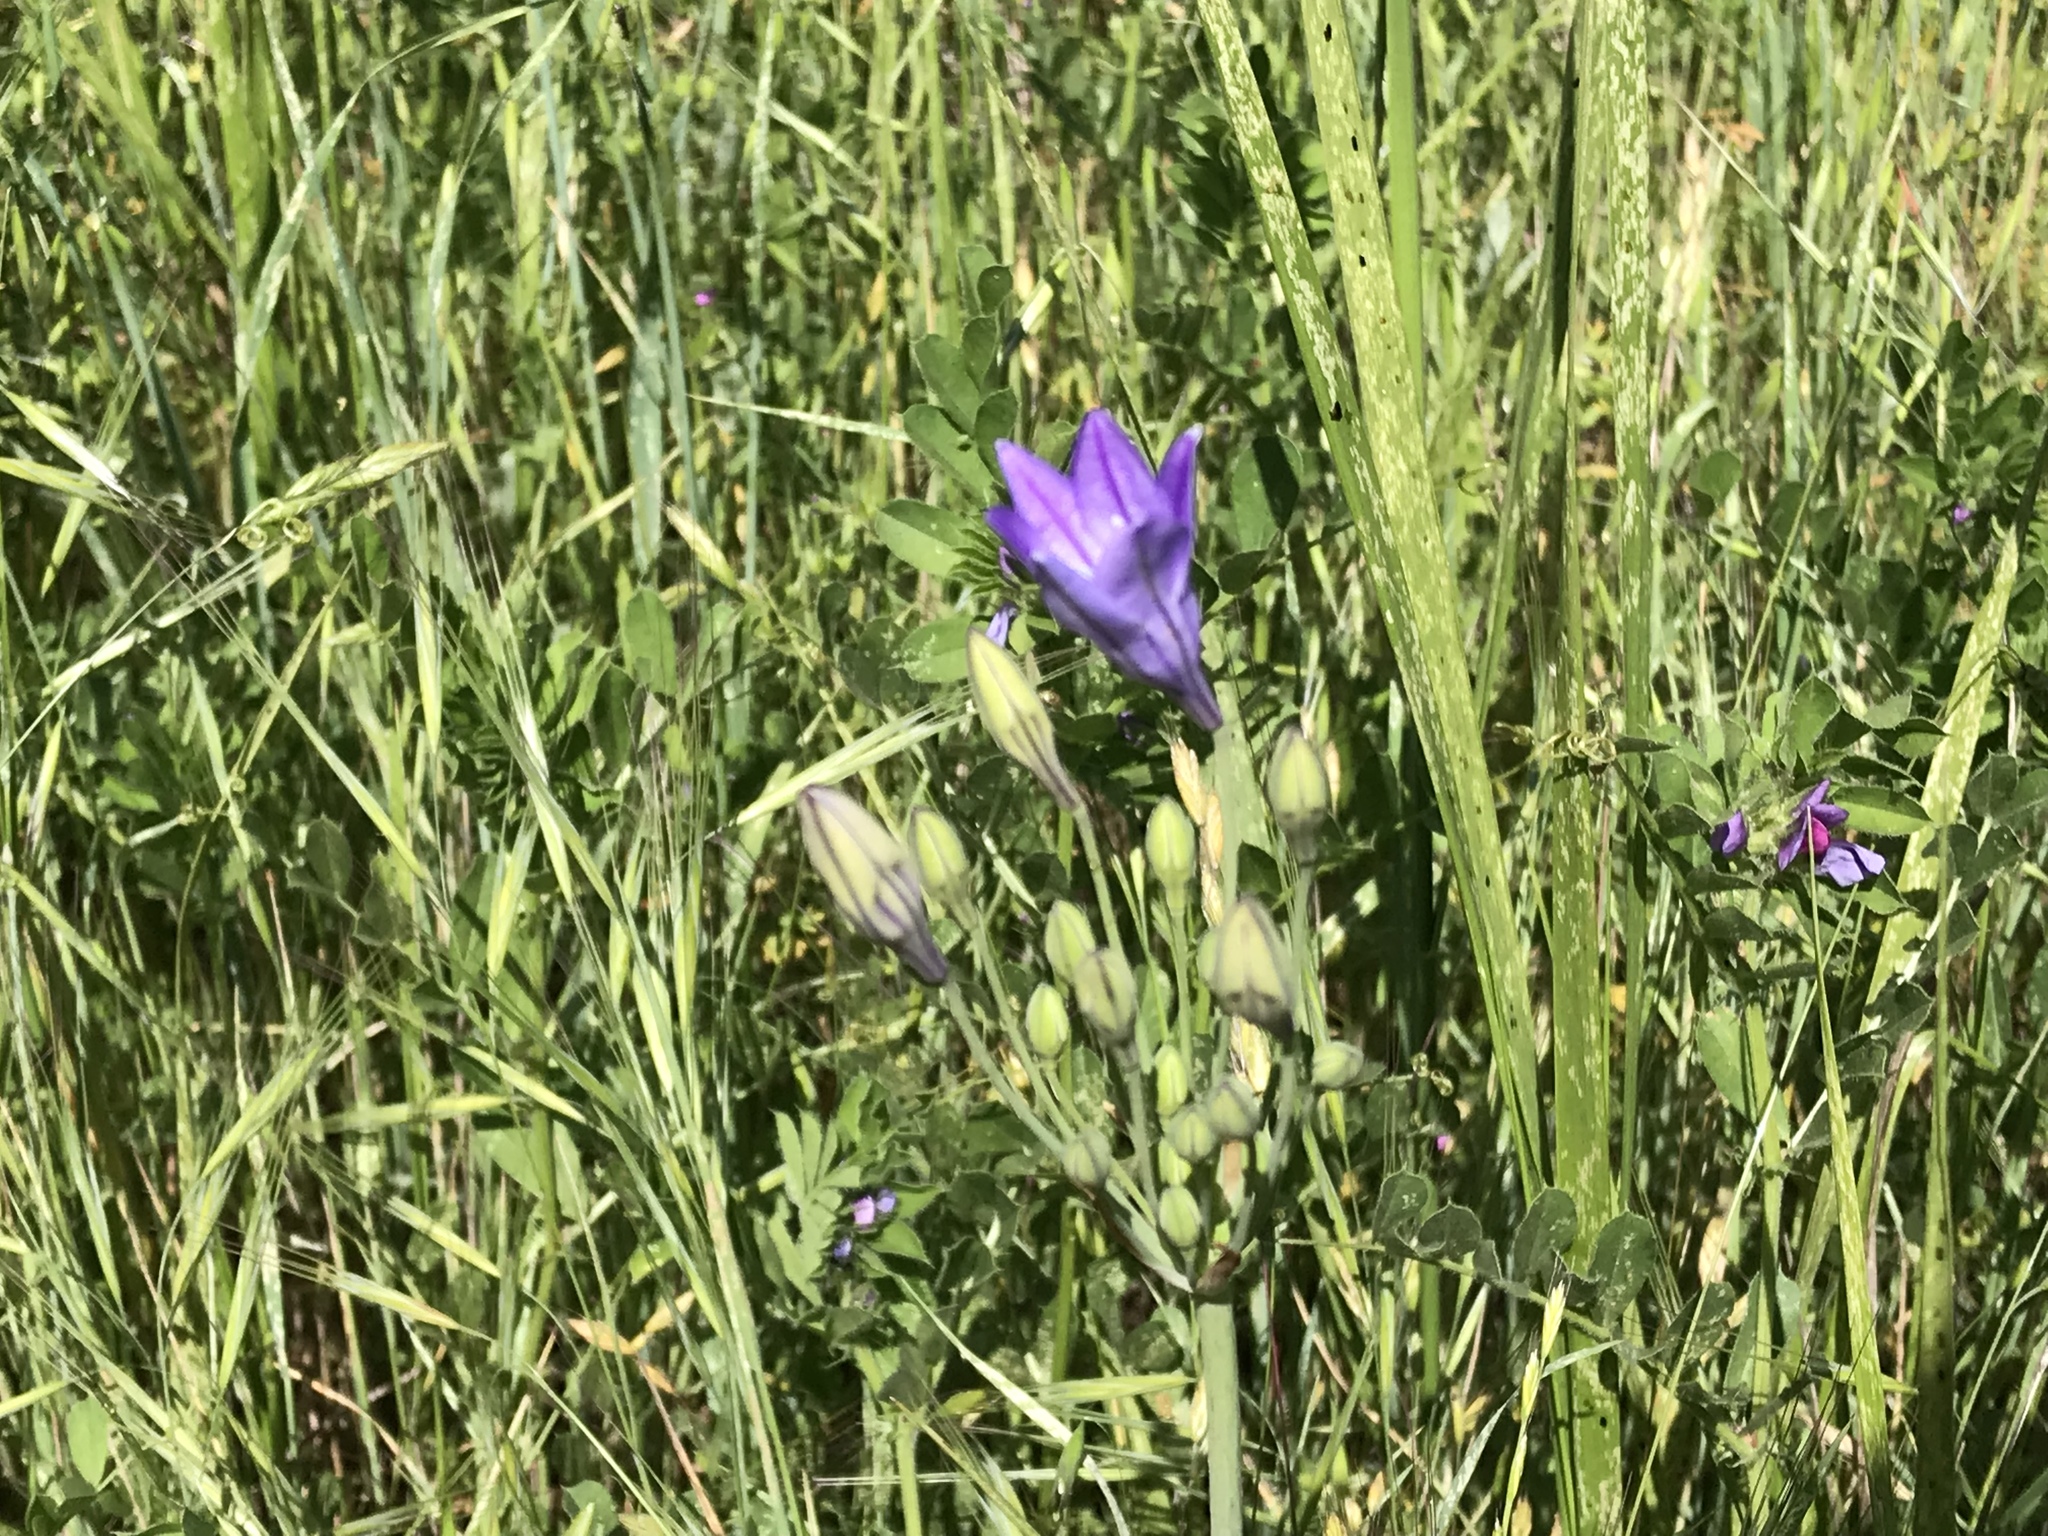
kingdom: Plantae
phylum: Tracheophyta
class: Liliopsida
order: Asparagales
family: Asparagaceae
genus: Triteleia
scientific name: Triteleia laxa
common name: Triplet-lily
